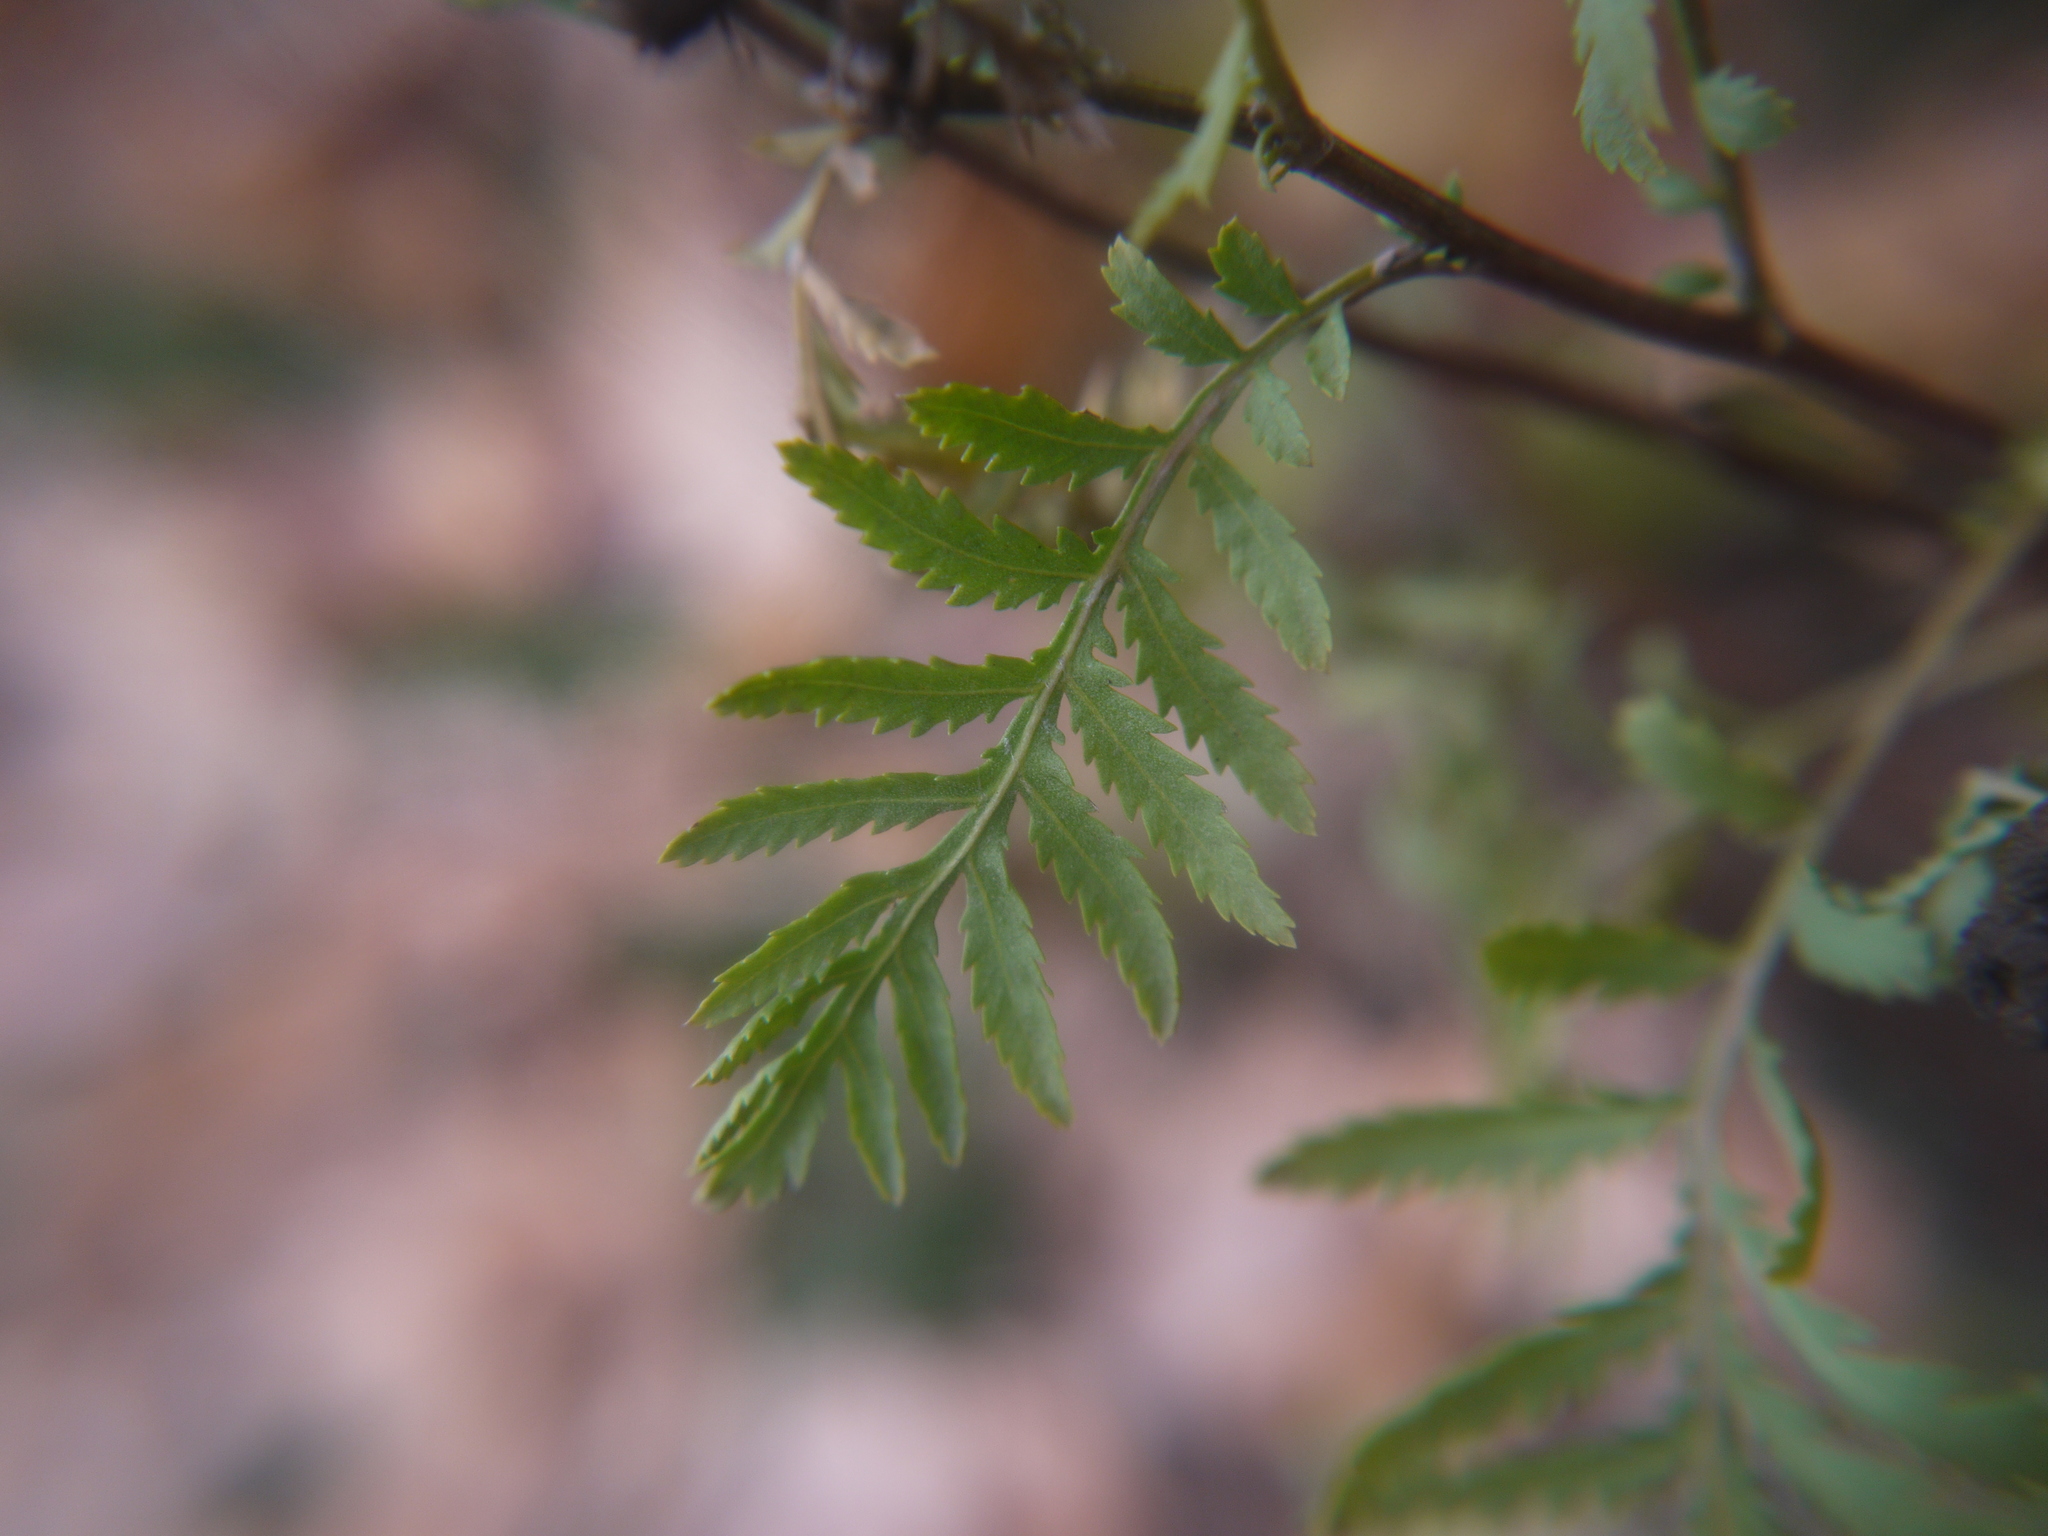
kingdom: Plantae
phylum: Tracheophyta
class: Magnoliopsida
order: Asterales
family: Asteraceae
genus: Tanacetum
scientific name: Tanacetum vulgare
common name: Common tansy
